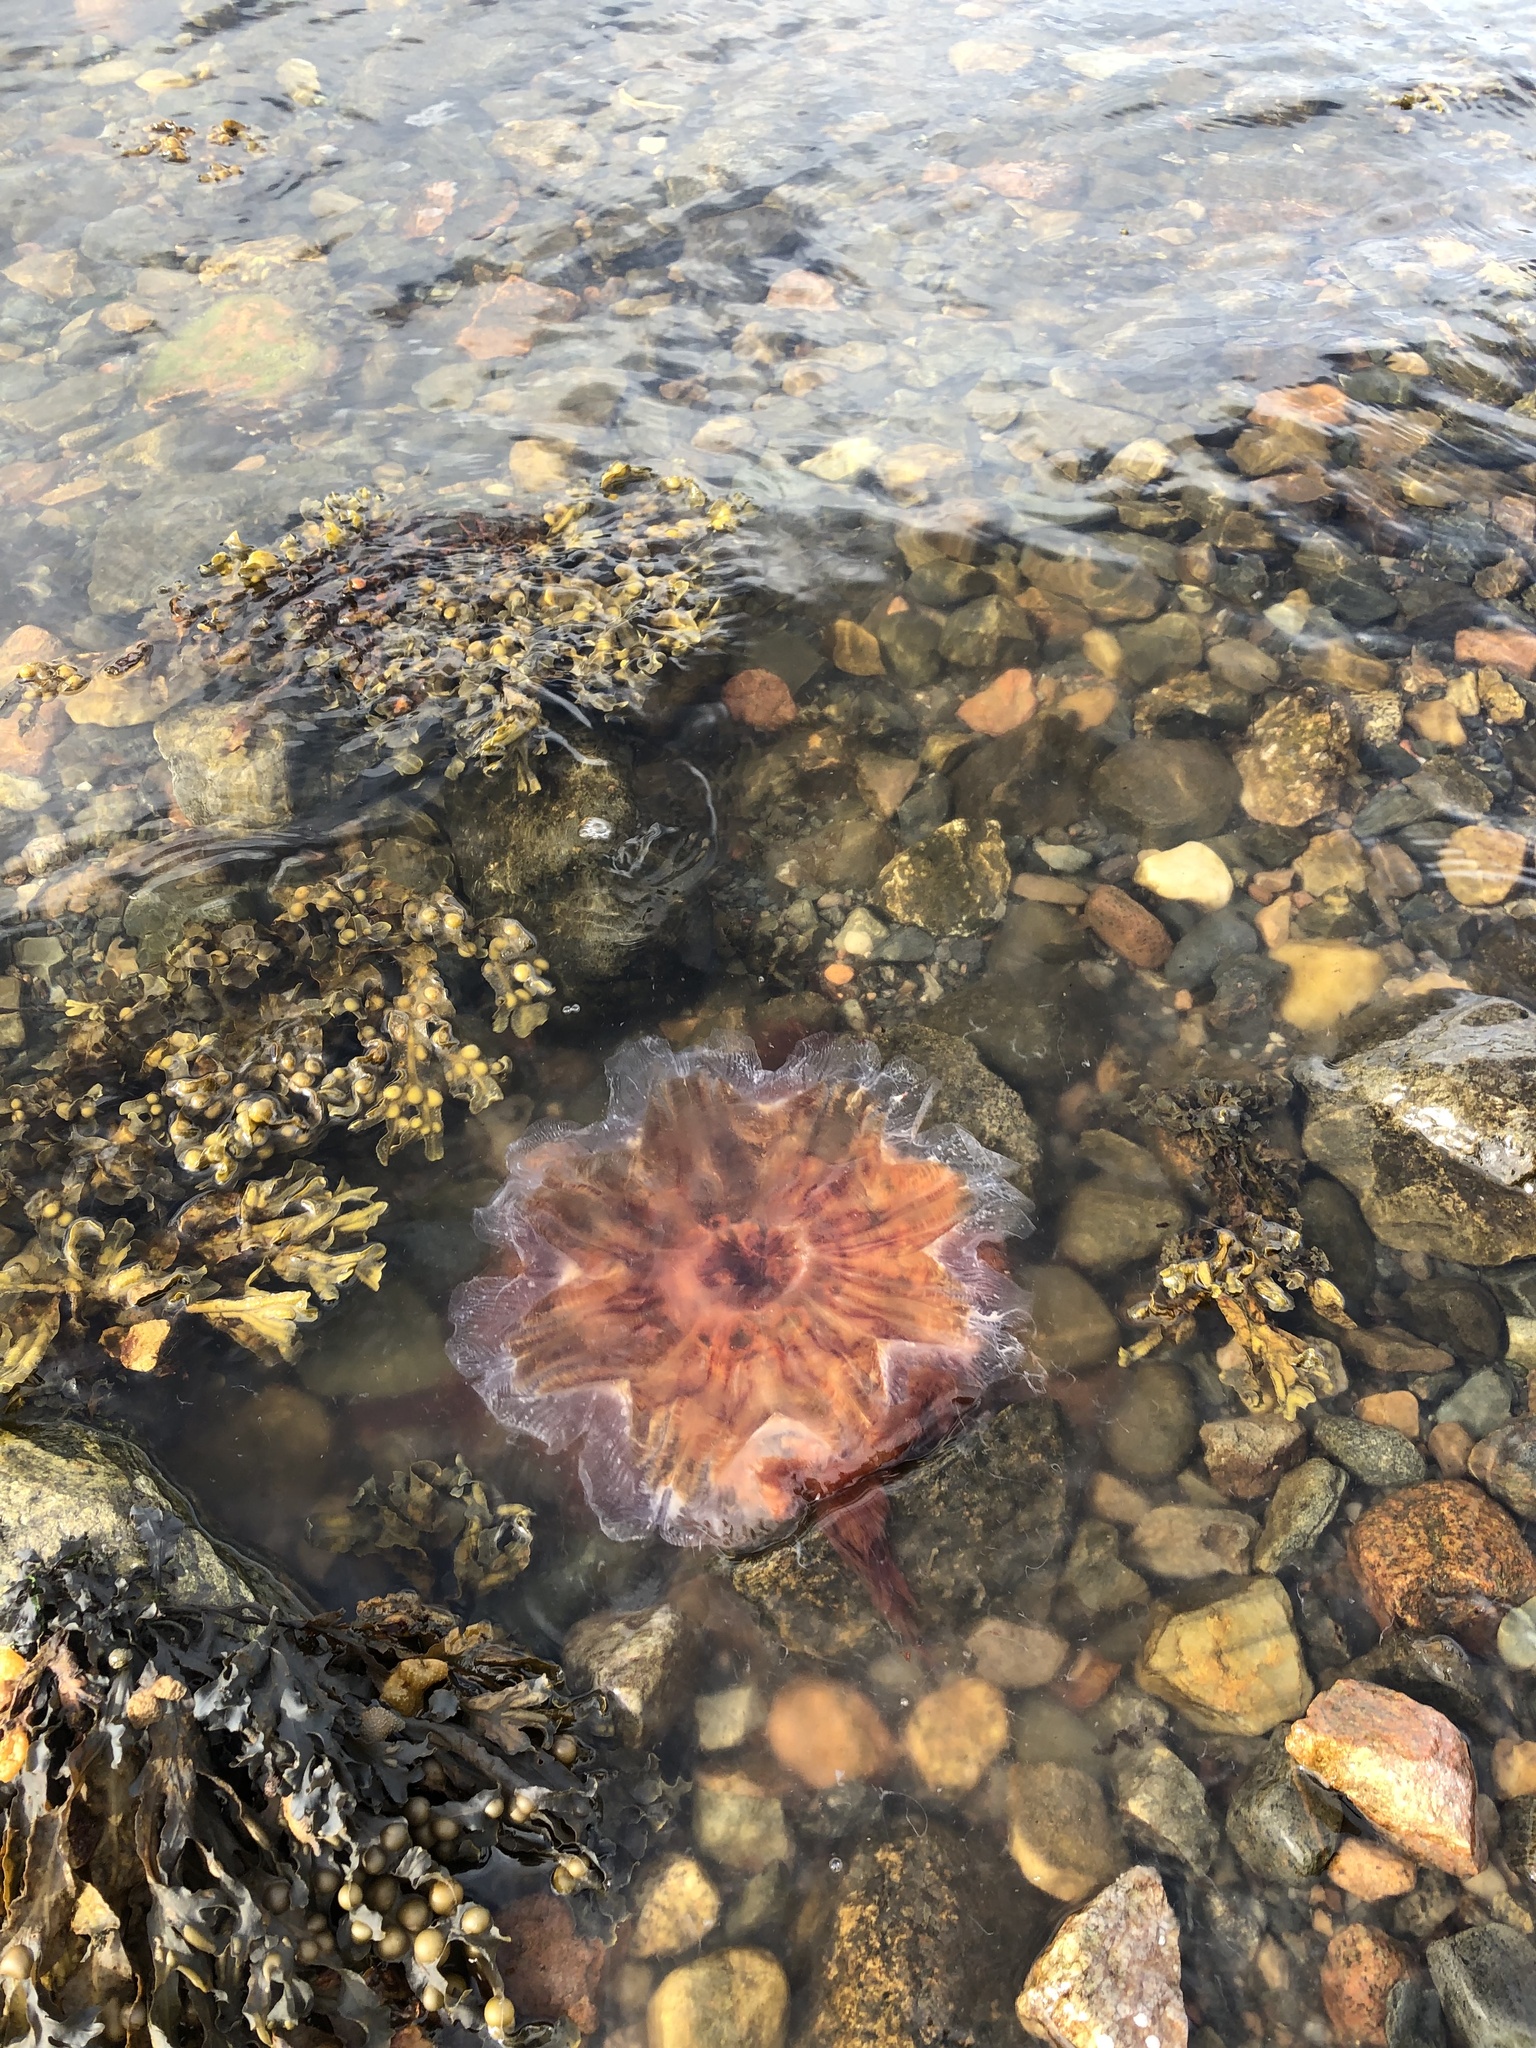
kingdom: Animalia
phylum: Cnidaria
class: Scyphozoa
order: Semaeostomeae
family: Cyaneidae
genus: Cyanea
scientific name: Cyanea capillata
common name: Lion's mane jellyfish
